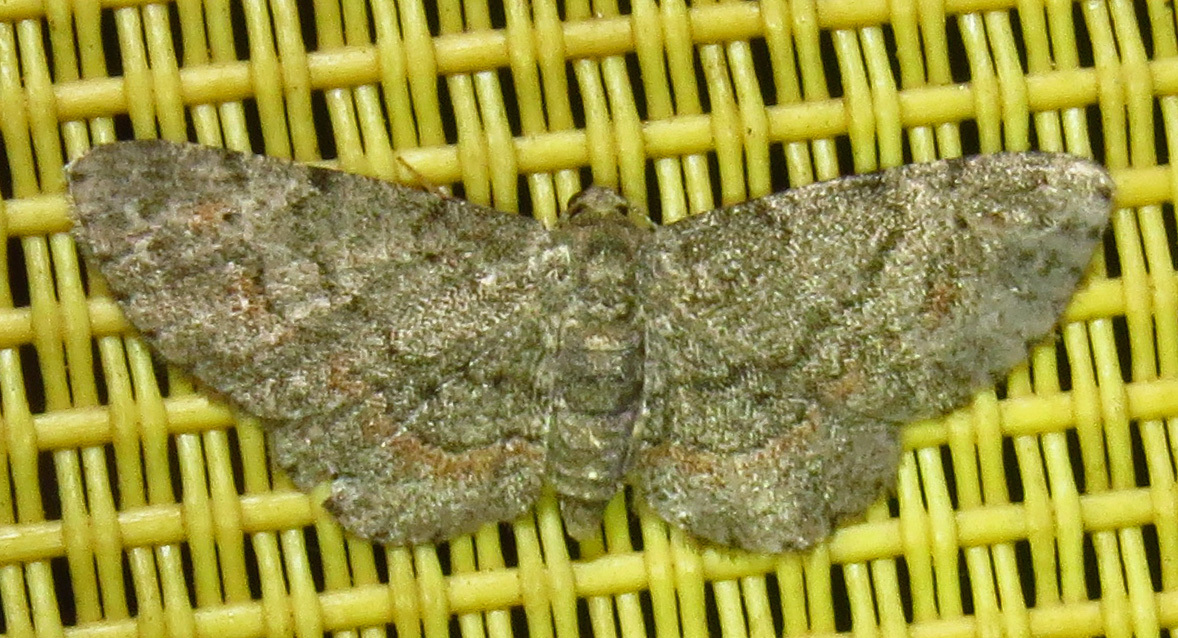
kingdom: Animalia
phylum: Arthropoda
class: Insecta
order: Lepidoptera
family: Geometridae
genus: Glenoides
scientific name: Glenoides texanaria
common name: Texas gray
